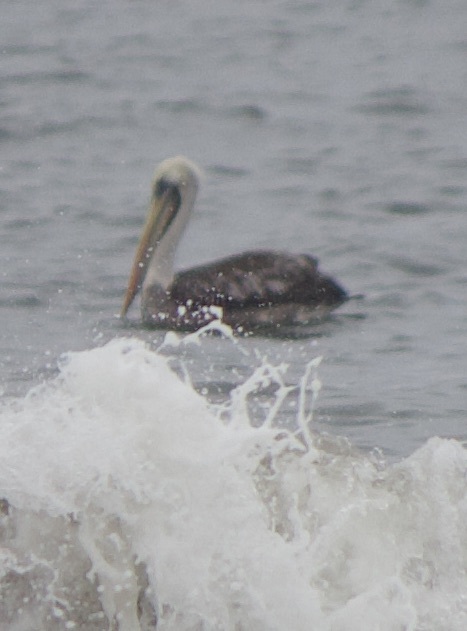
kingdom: Animalia
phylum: Chordata
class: Aves
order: Pelecaniformes
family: Pelecanidae
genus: Pelecanus
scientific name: Pelecanus thagus
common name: Peruvian pelican
